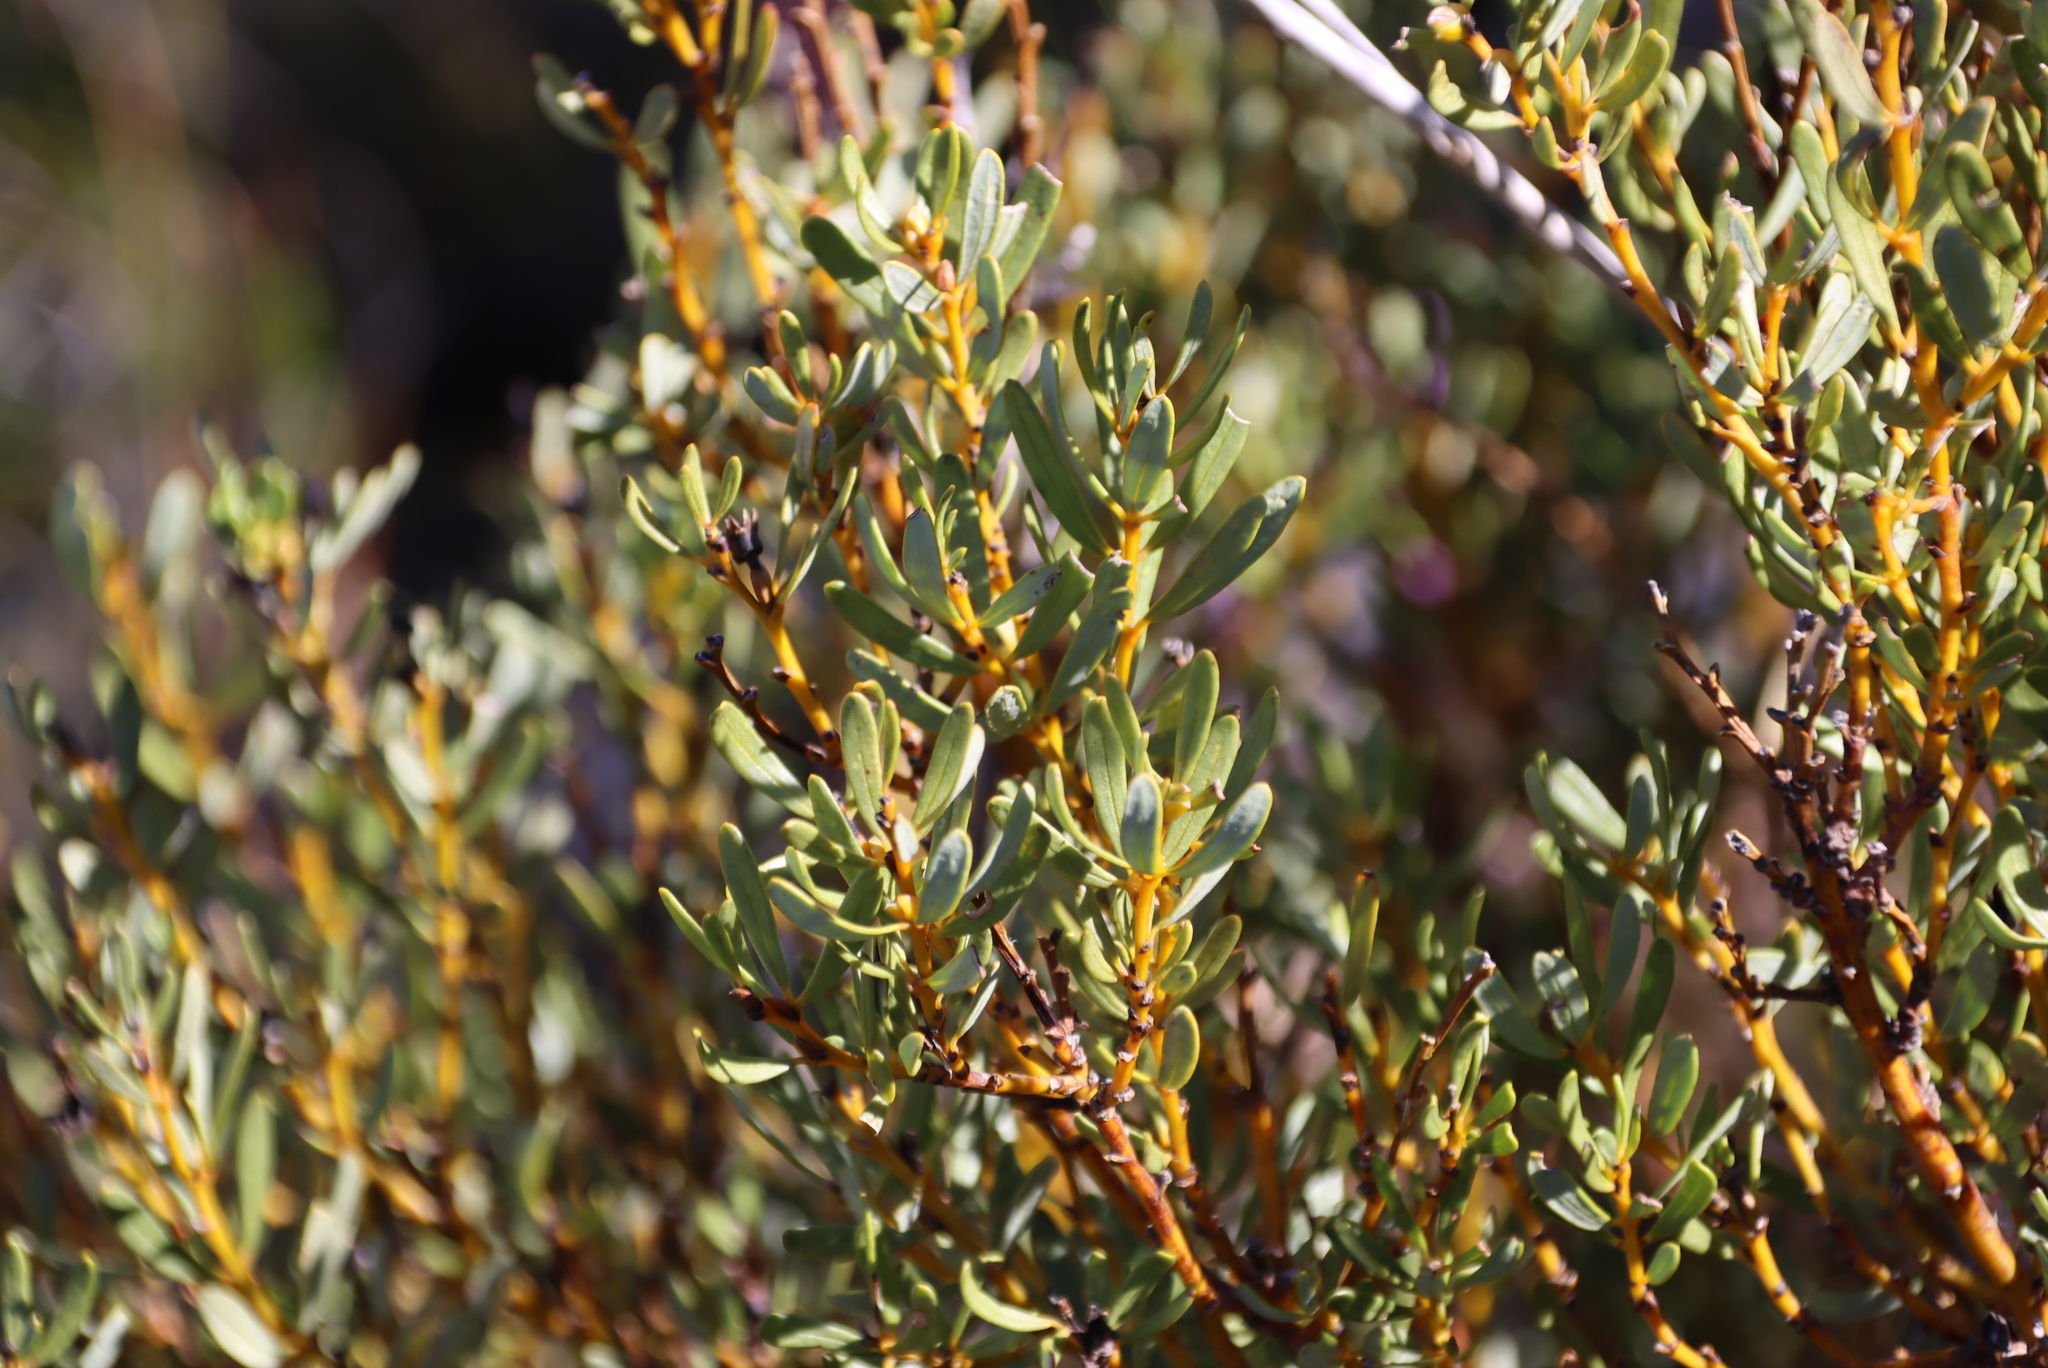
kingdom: Plantae
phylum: Tracheophyta
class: Magnoliopsida
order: Fabales
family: Fabaceae
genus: Cyclopia
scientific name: Cyclopia intermedia
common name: Mountain tea
